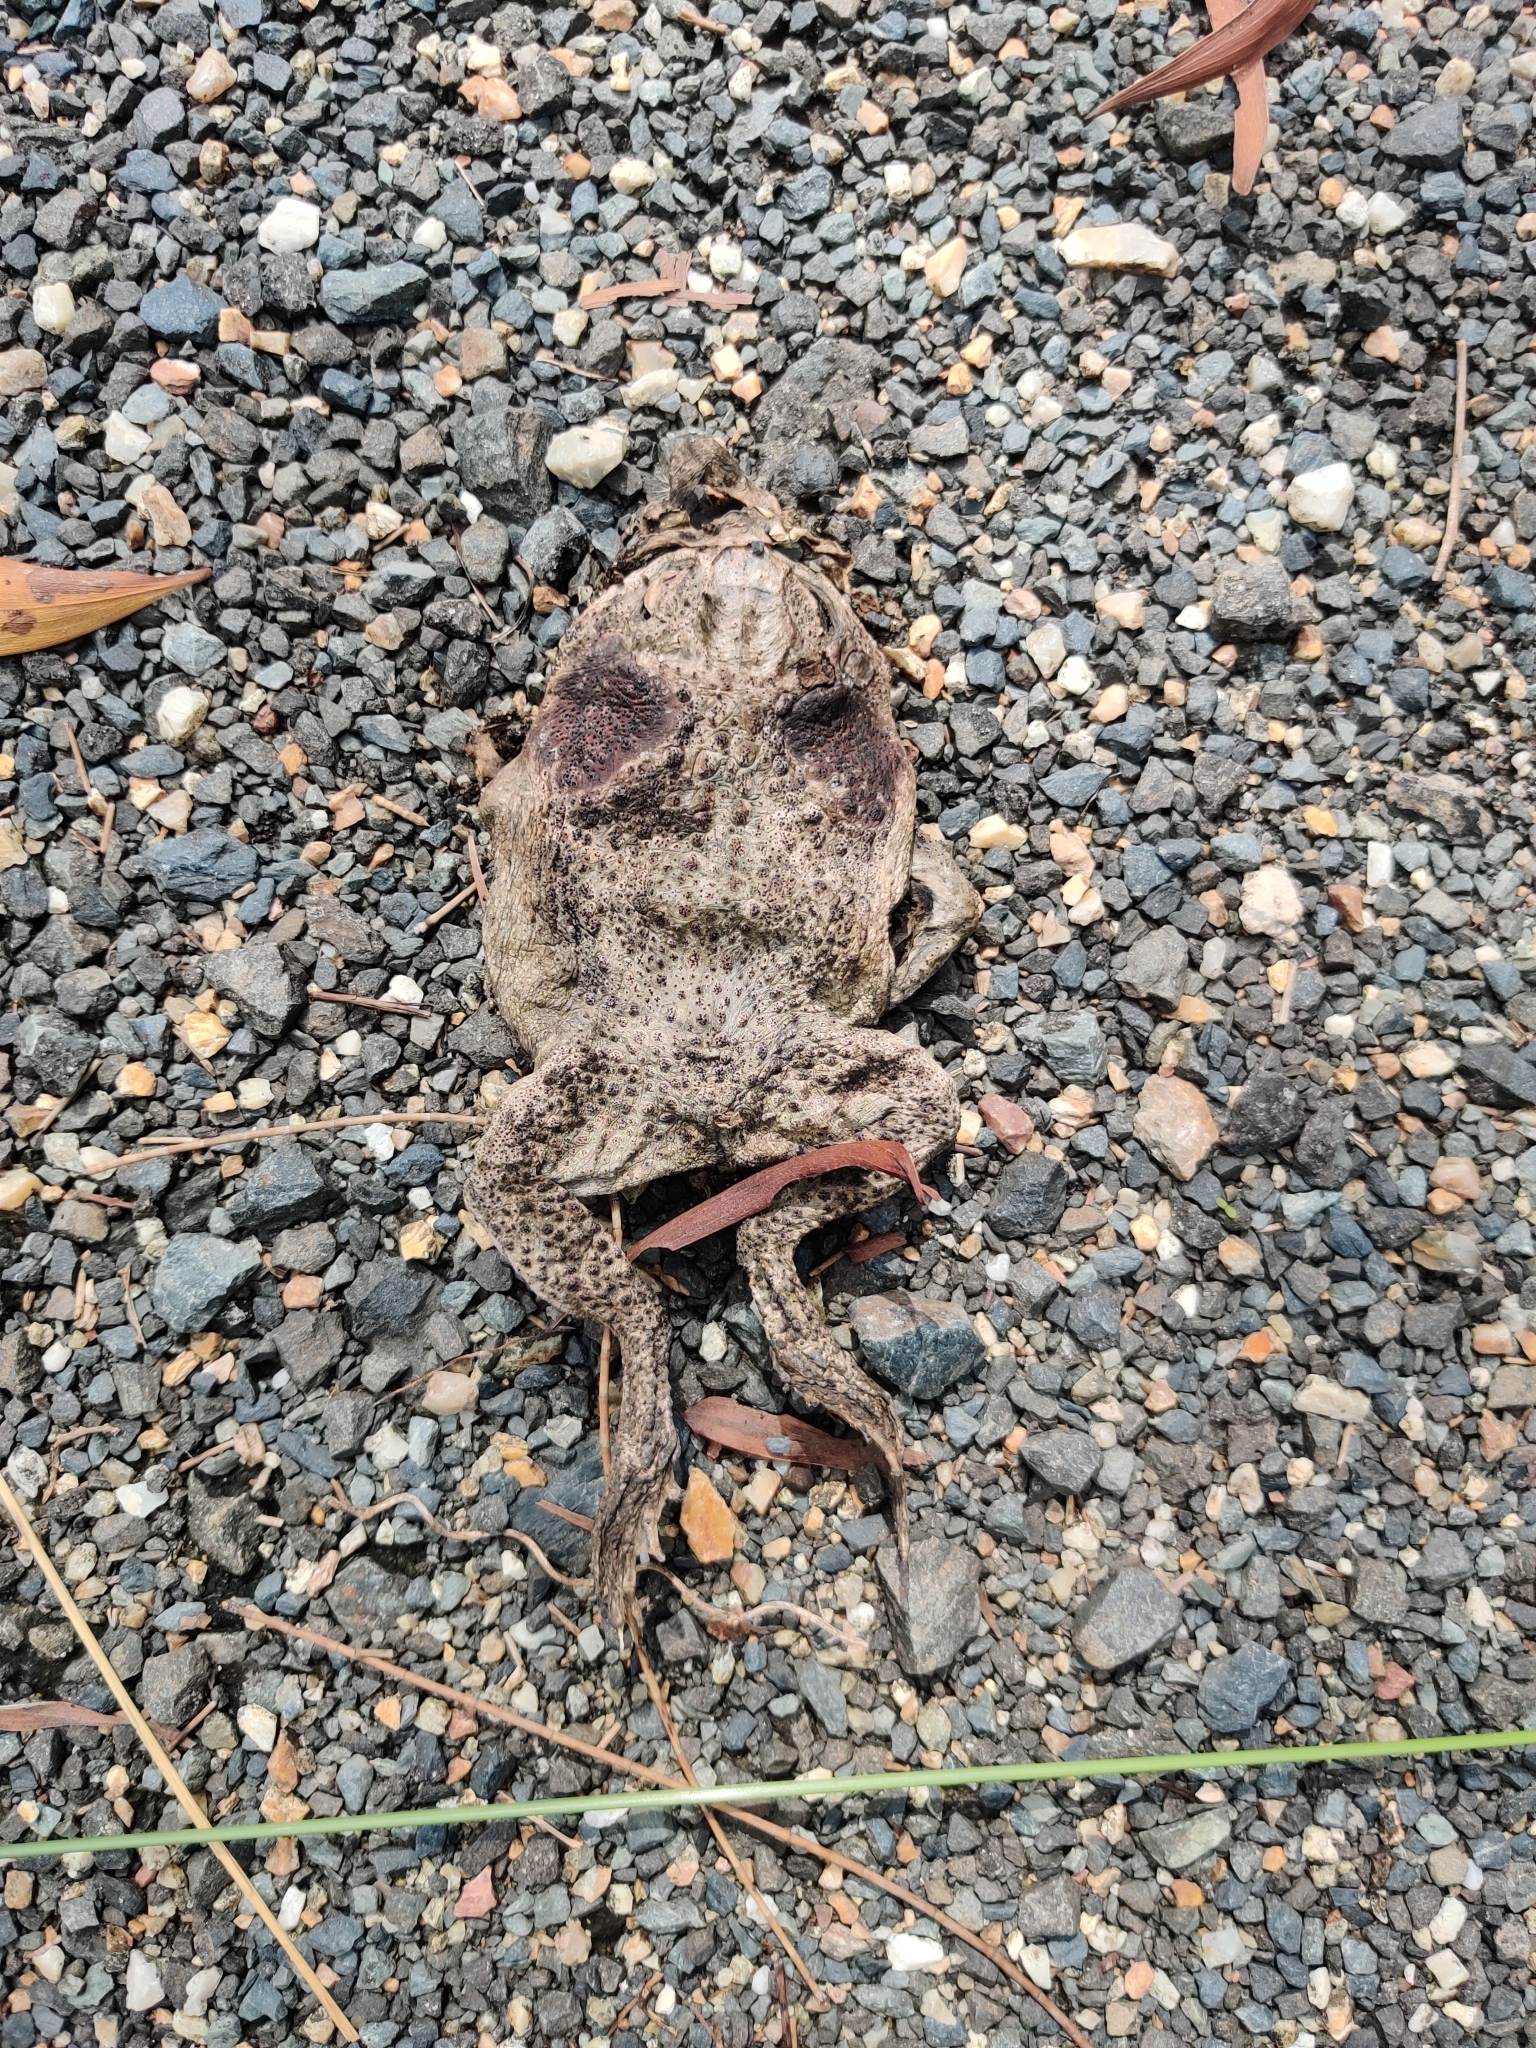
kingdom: Animalia
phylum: Chordata
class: Amphibia
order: Anura
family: Bufonidae
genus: Rhinella
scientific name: Rhinella marina
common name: Cane toad
